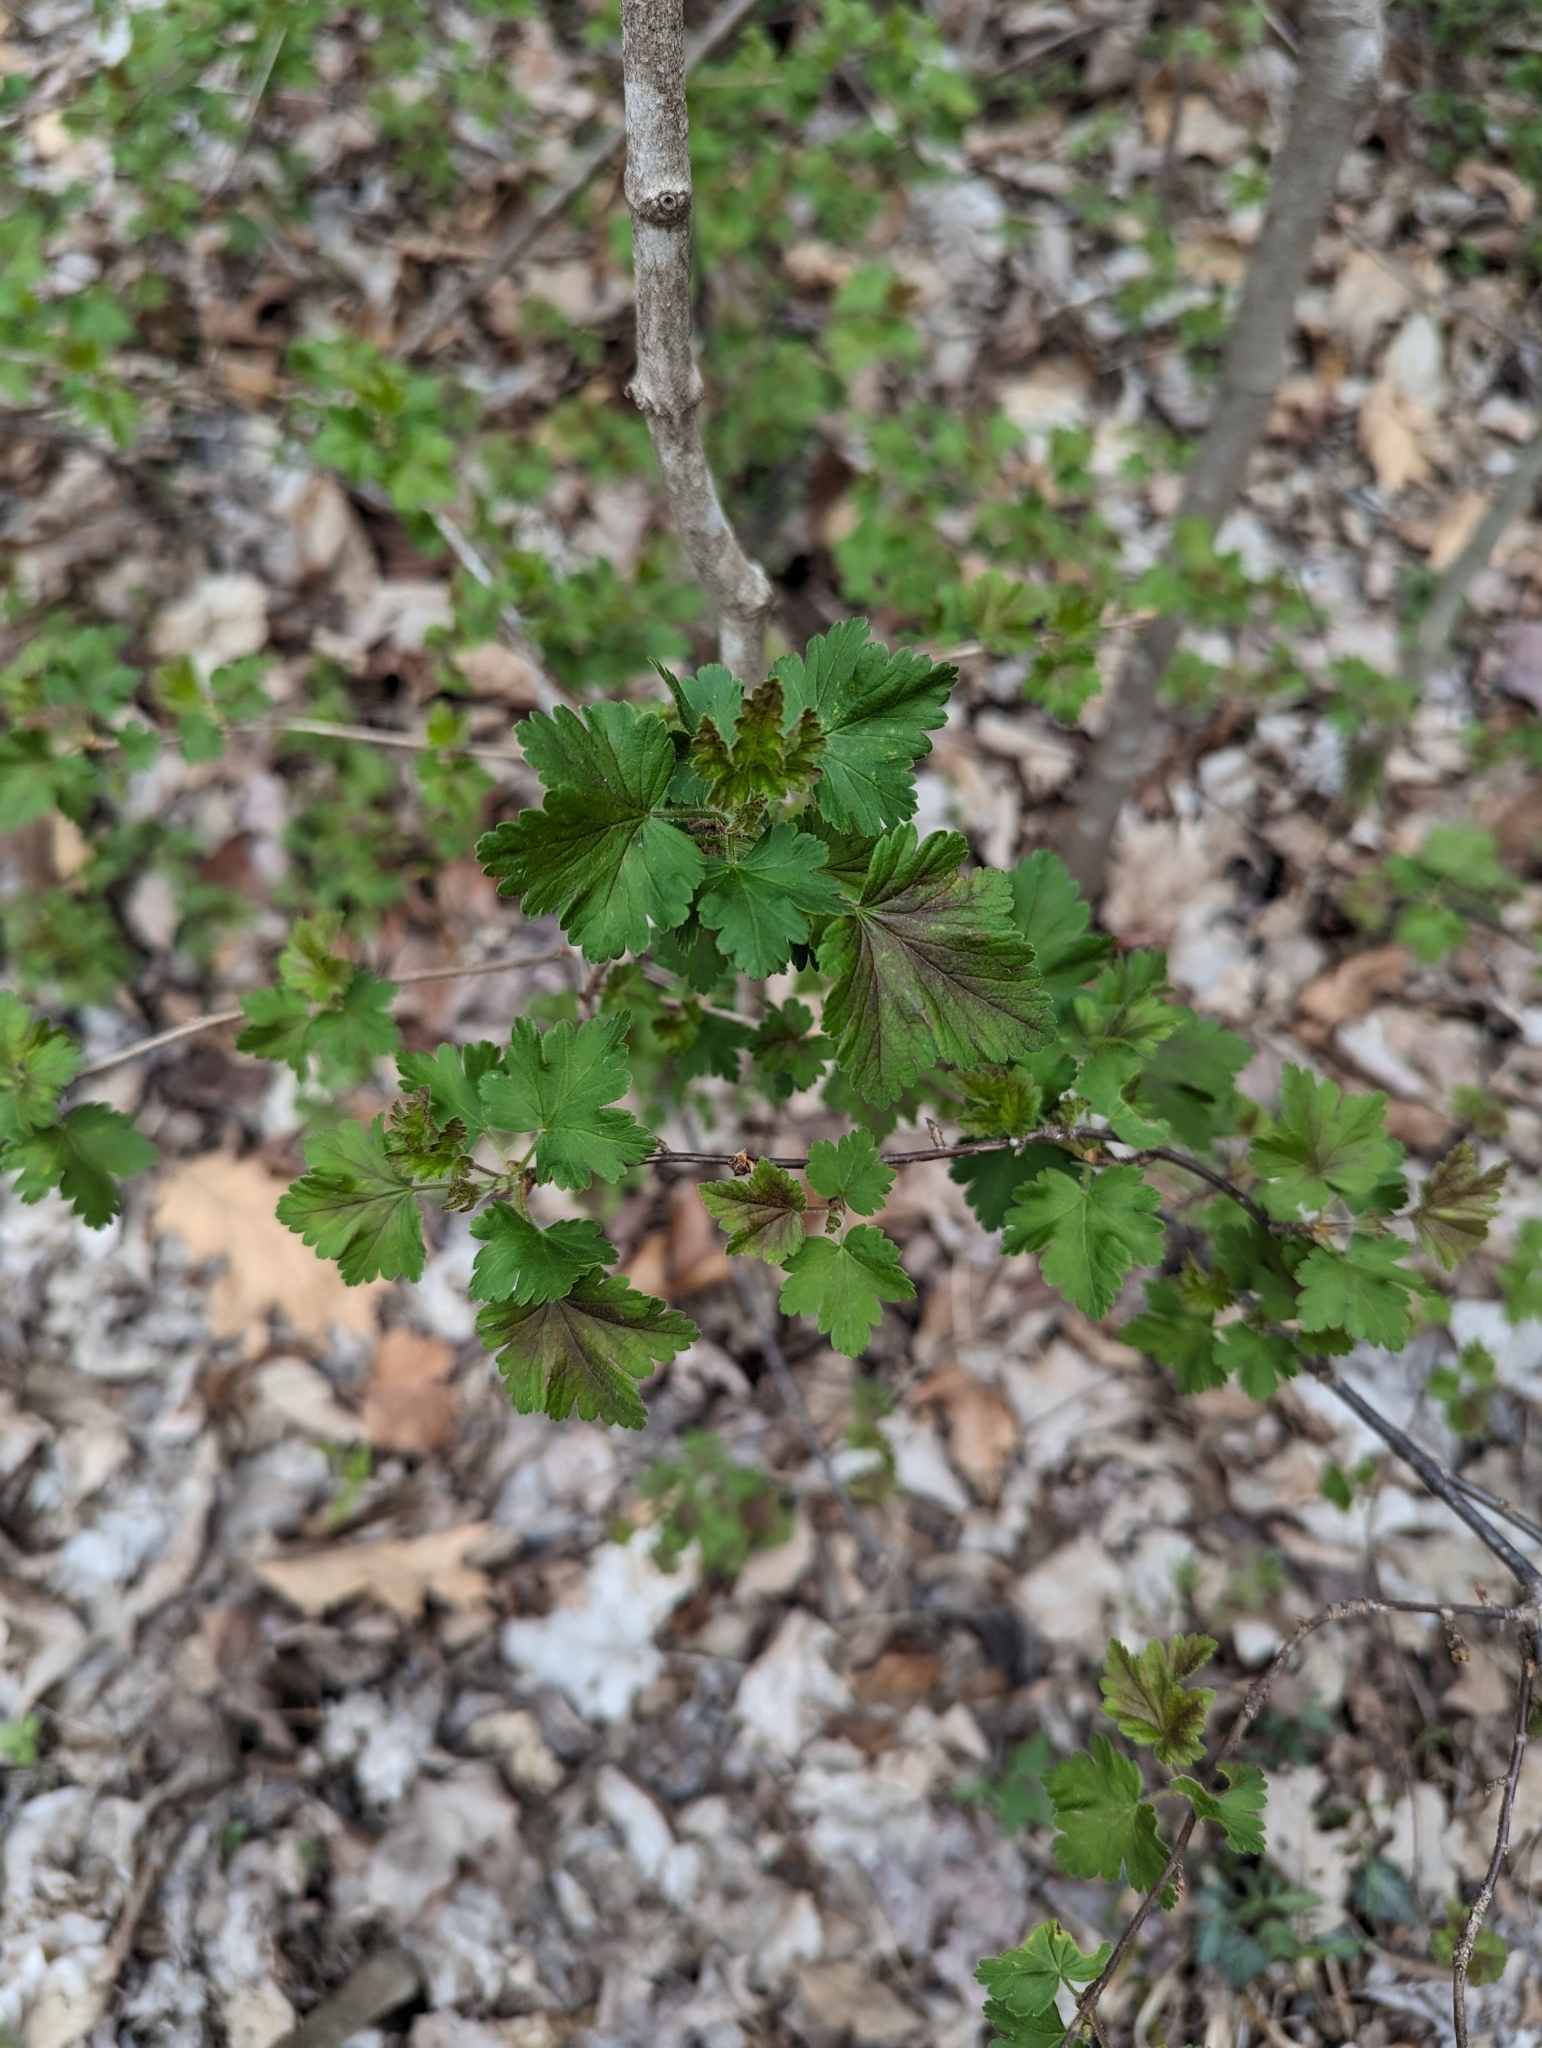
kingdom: Plantae
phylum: Tracheophyta
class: Magnoliopsida
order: Saxifragales
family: Grossulariaceae
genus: Ribes
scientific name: Ribes cynosbati
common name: American gooseberry
